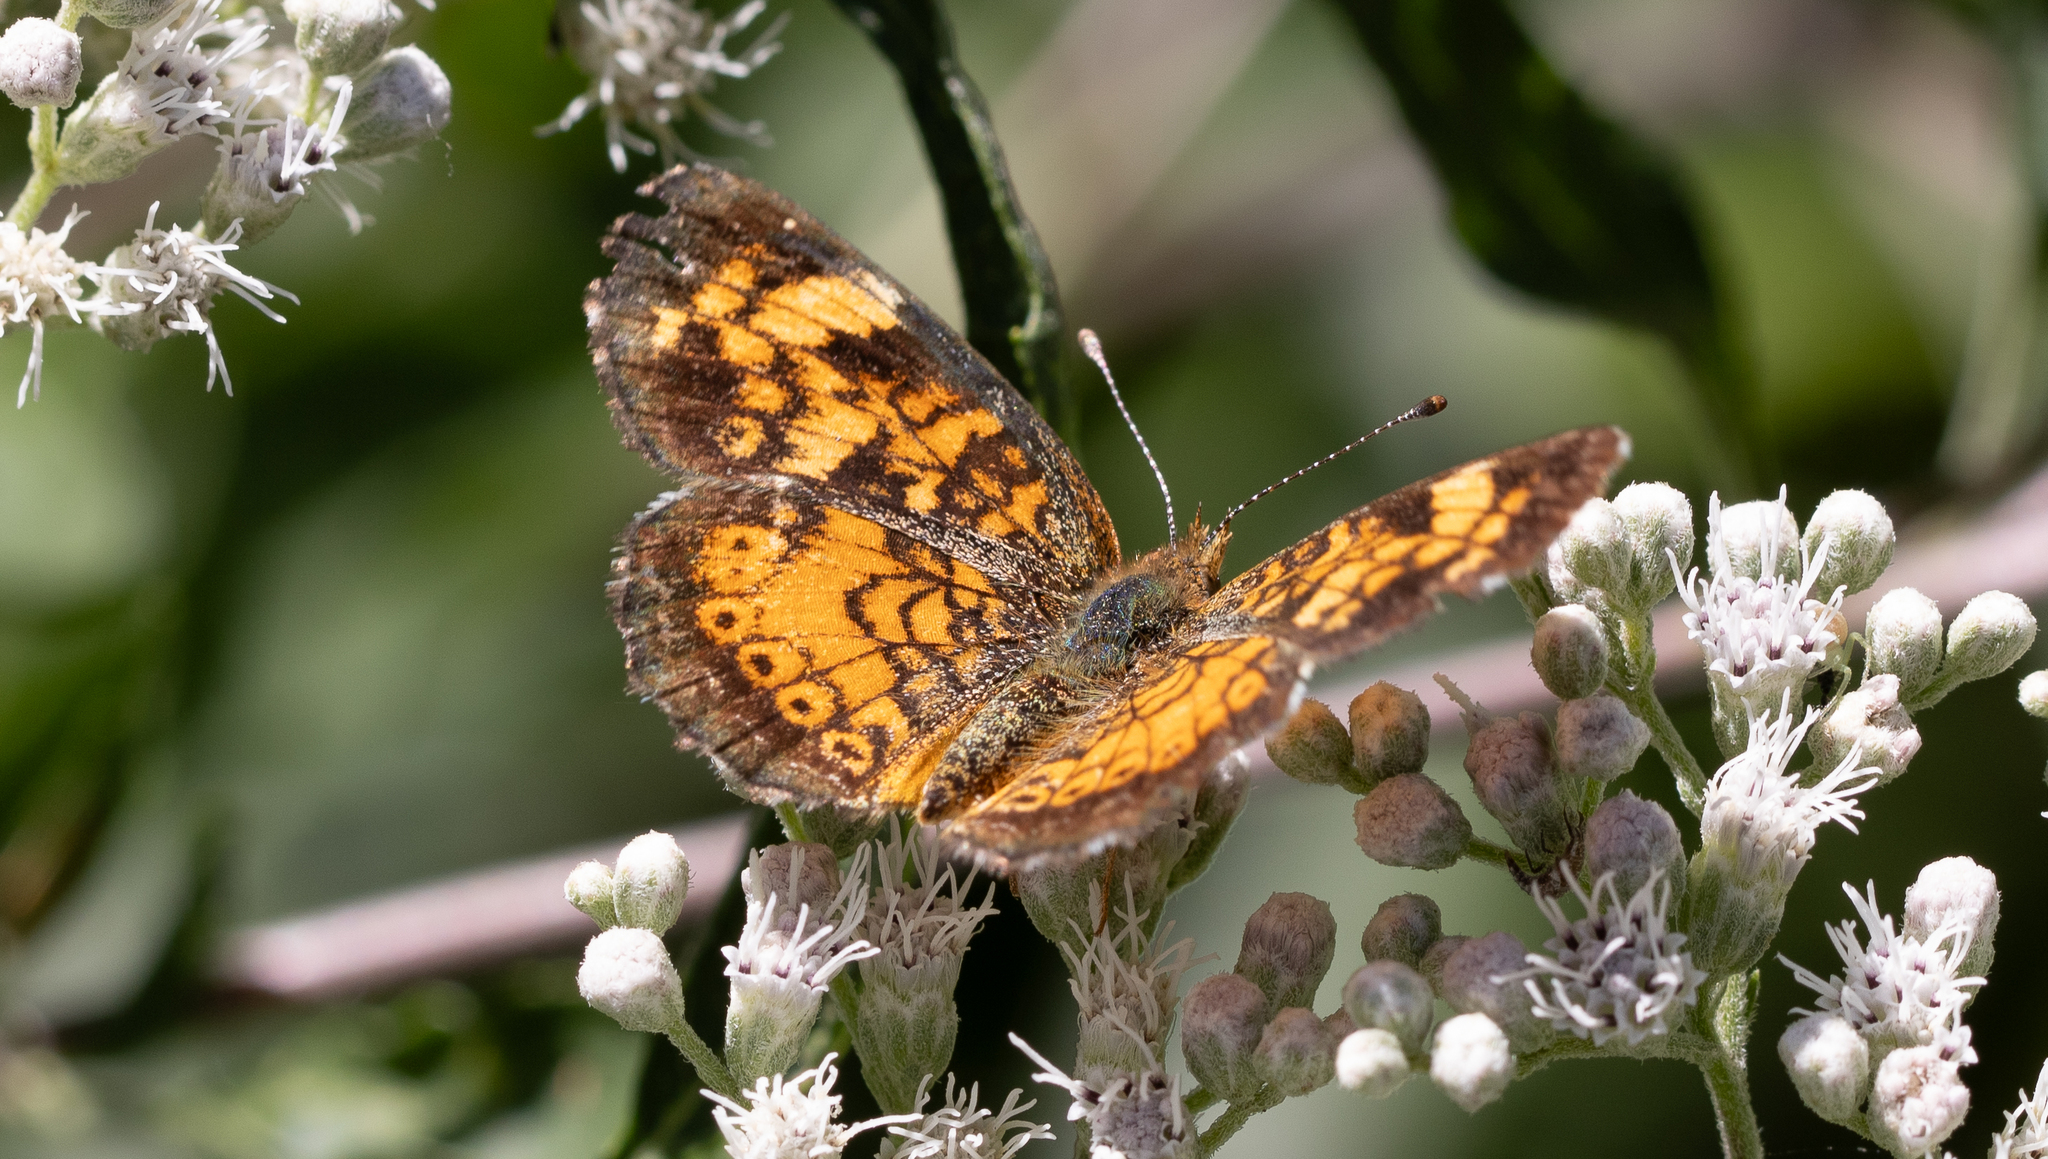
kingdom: Animalia
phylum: Arthropoda
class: Insecta
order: Lepidoptera
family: Nymphalidae
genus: Phyciodes
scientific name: Phyciodes tharos
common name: Pearl crescent
